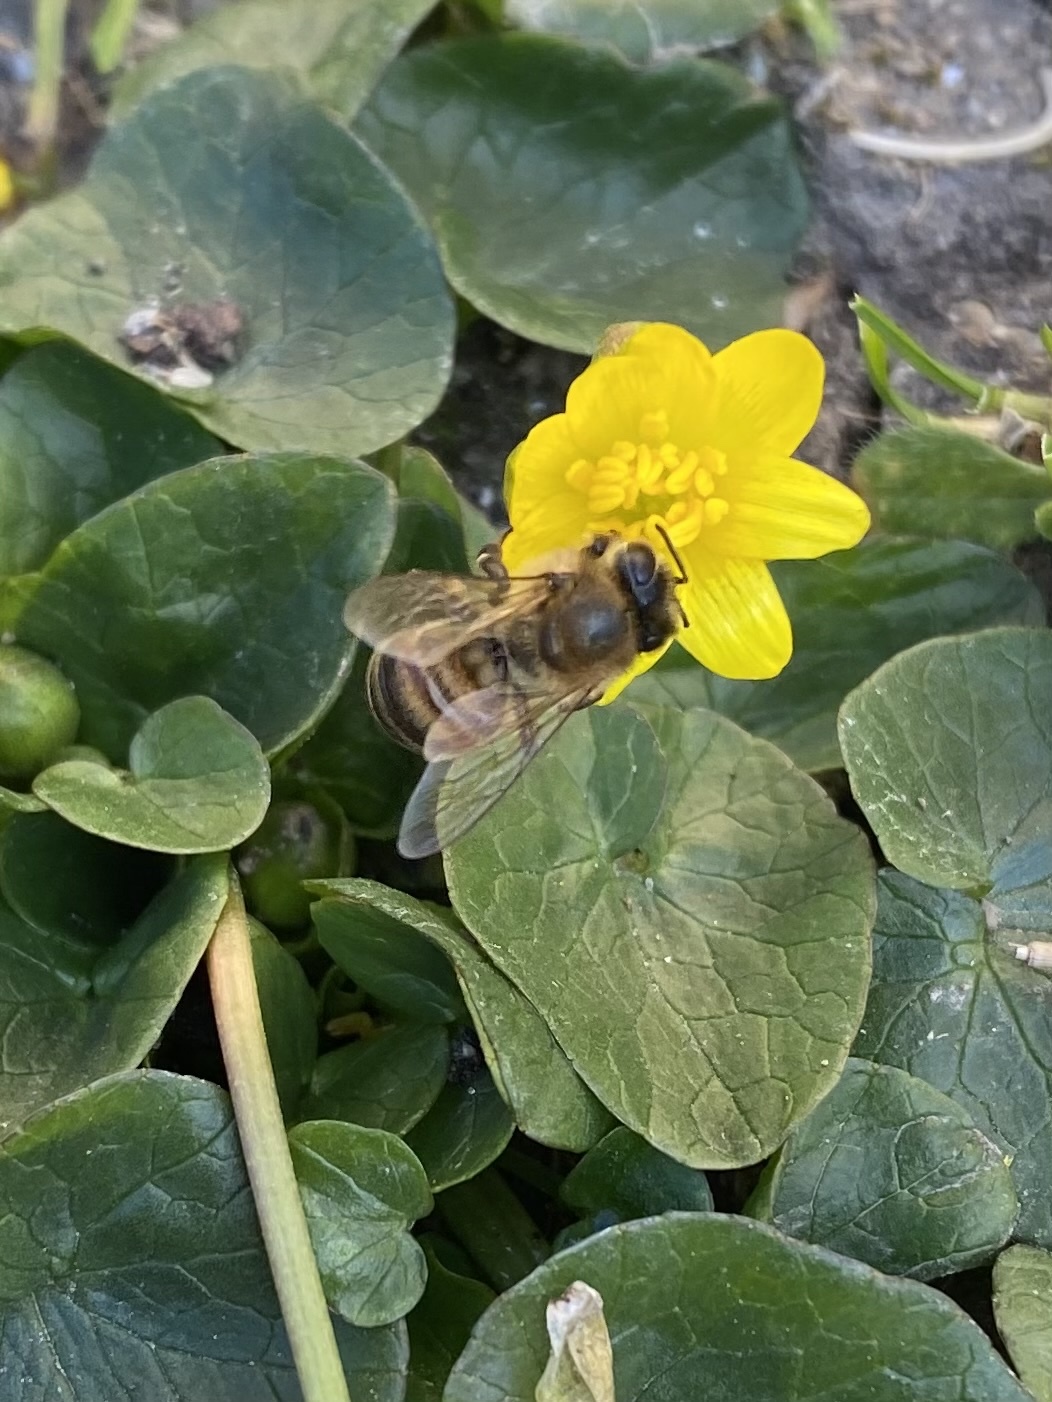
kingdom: Animalia
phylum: Arthropoda
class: Insecta
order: Hymenoptera
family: Apidae
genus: Apis
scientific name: Apis mellifera
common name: Honey bee
